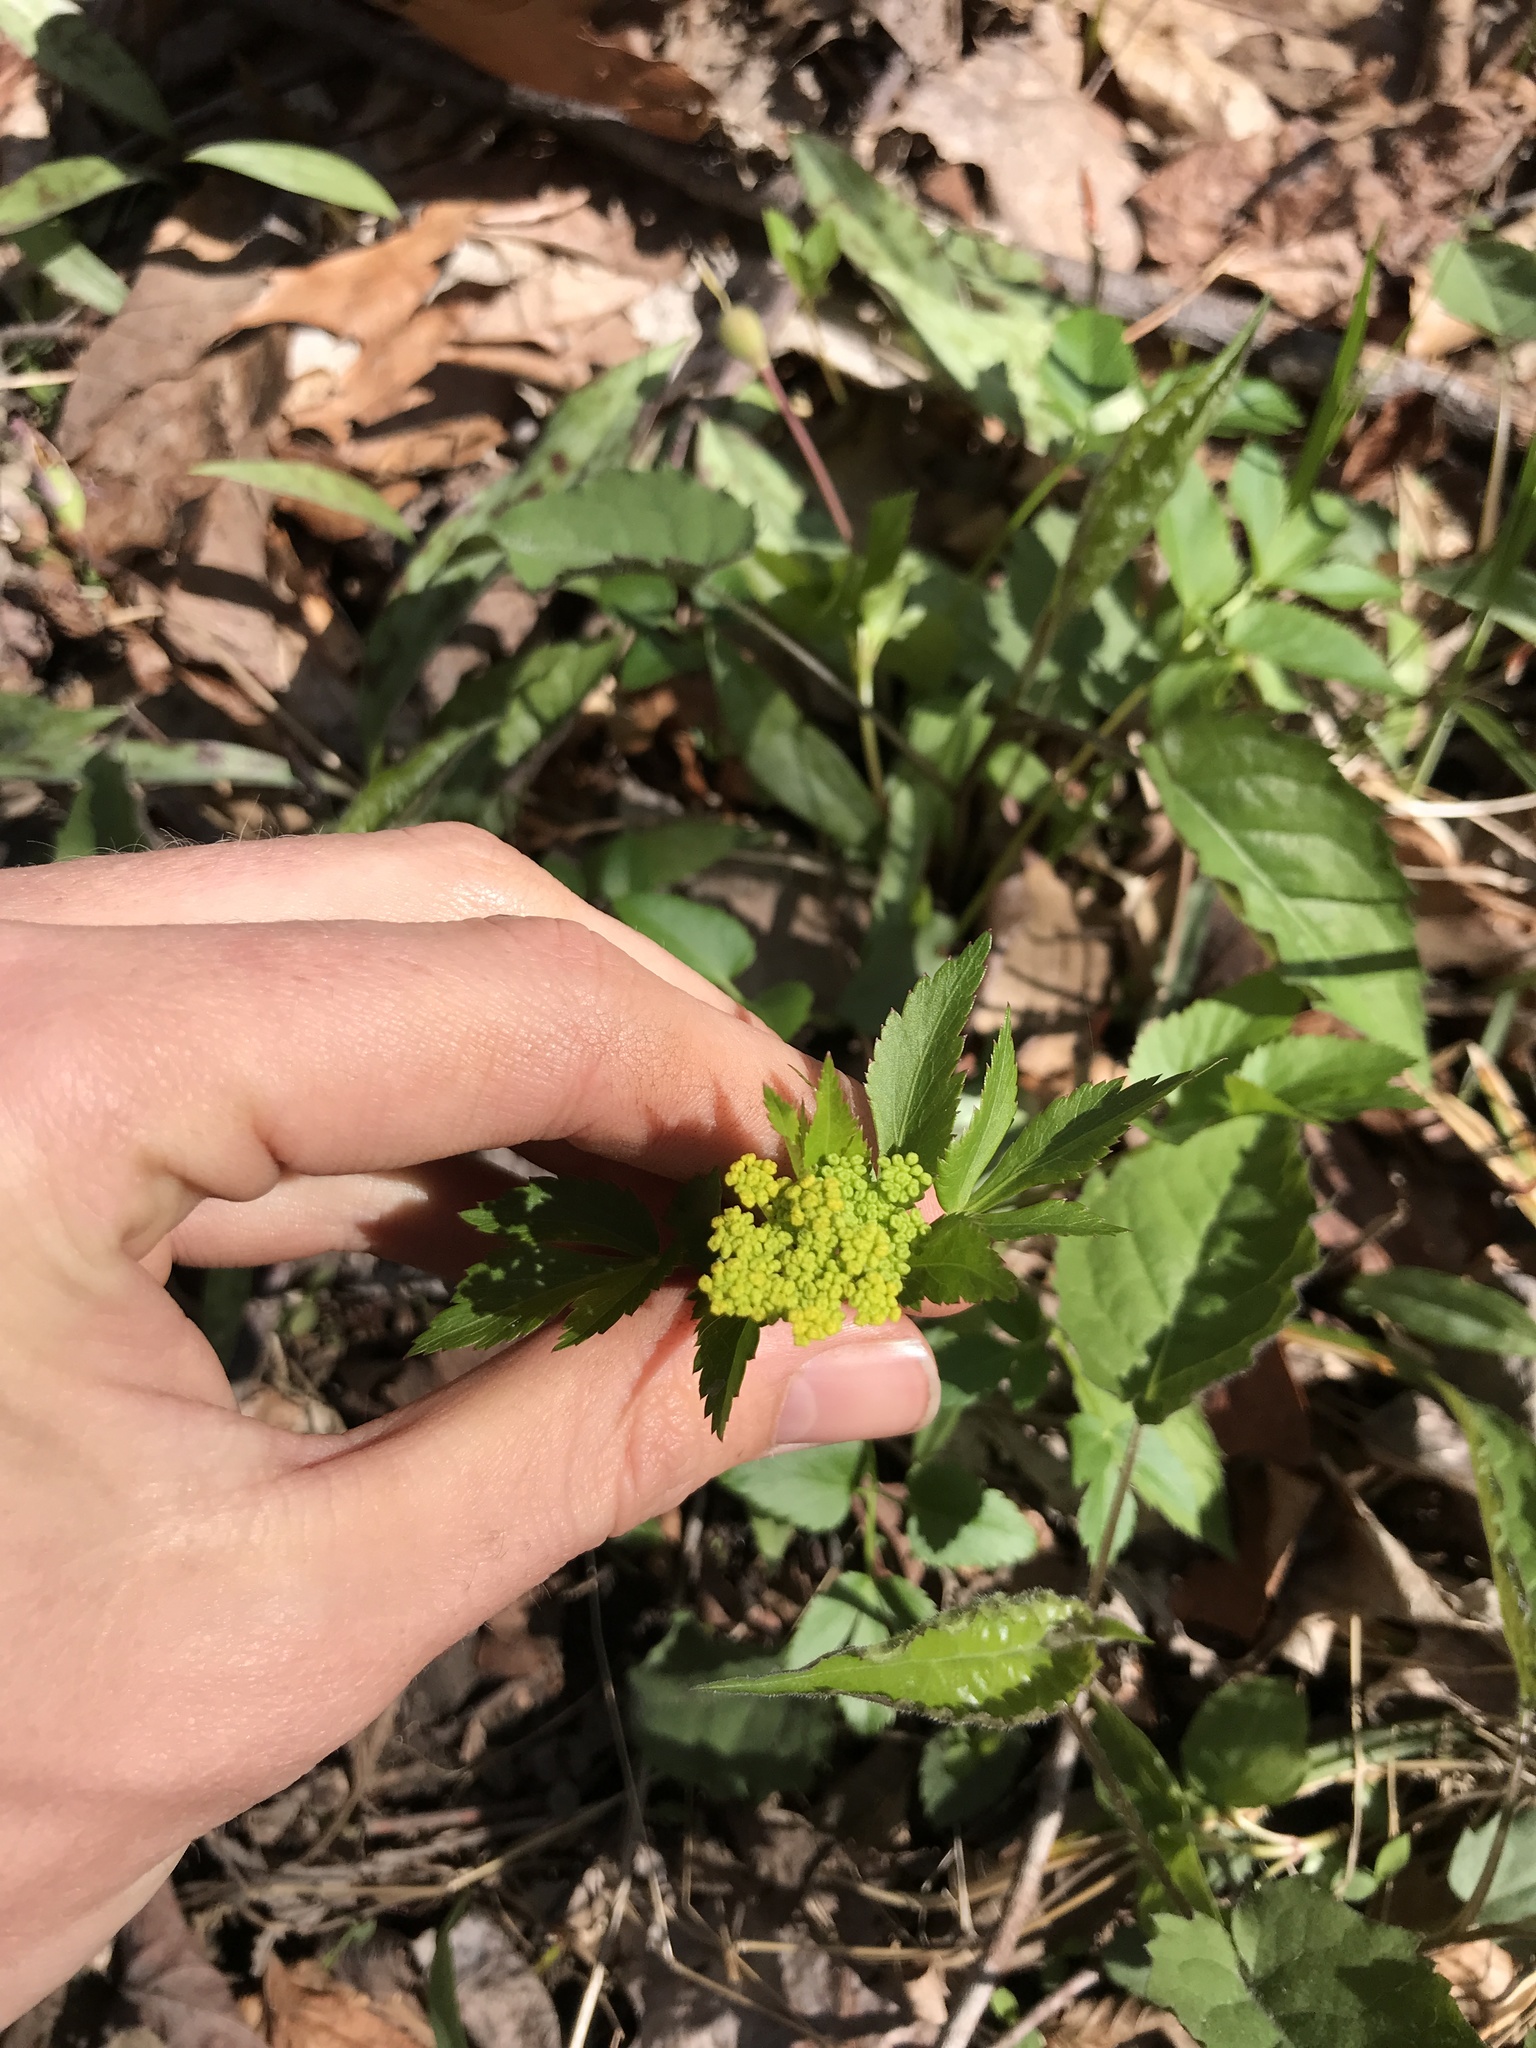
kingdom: Plantae
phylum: Tracheophyta
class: Magnoliopsida
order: Apiales
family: Apiaceae
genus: Zizia
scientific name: Zizia aurea
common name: Golden alexanders
